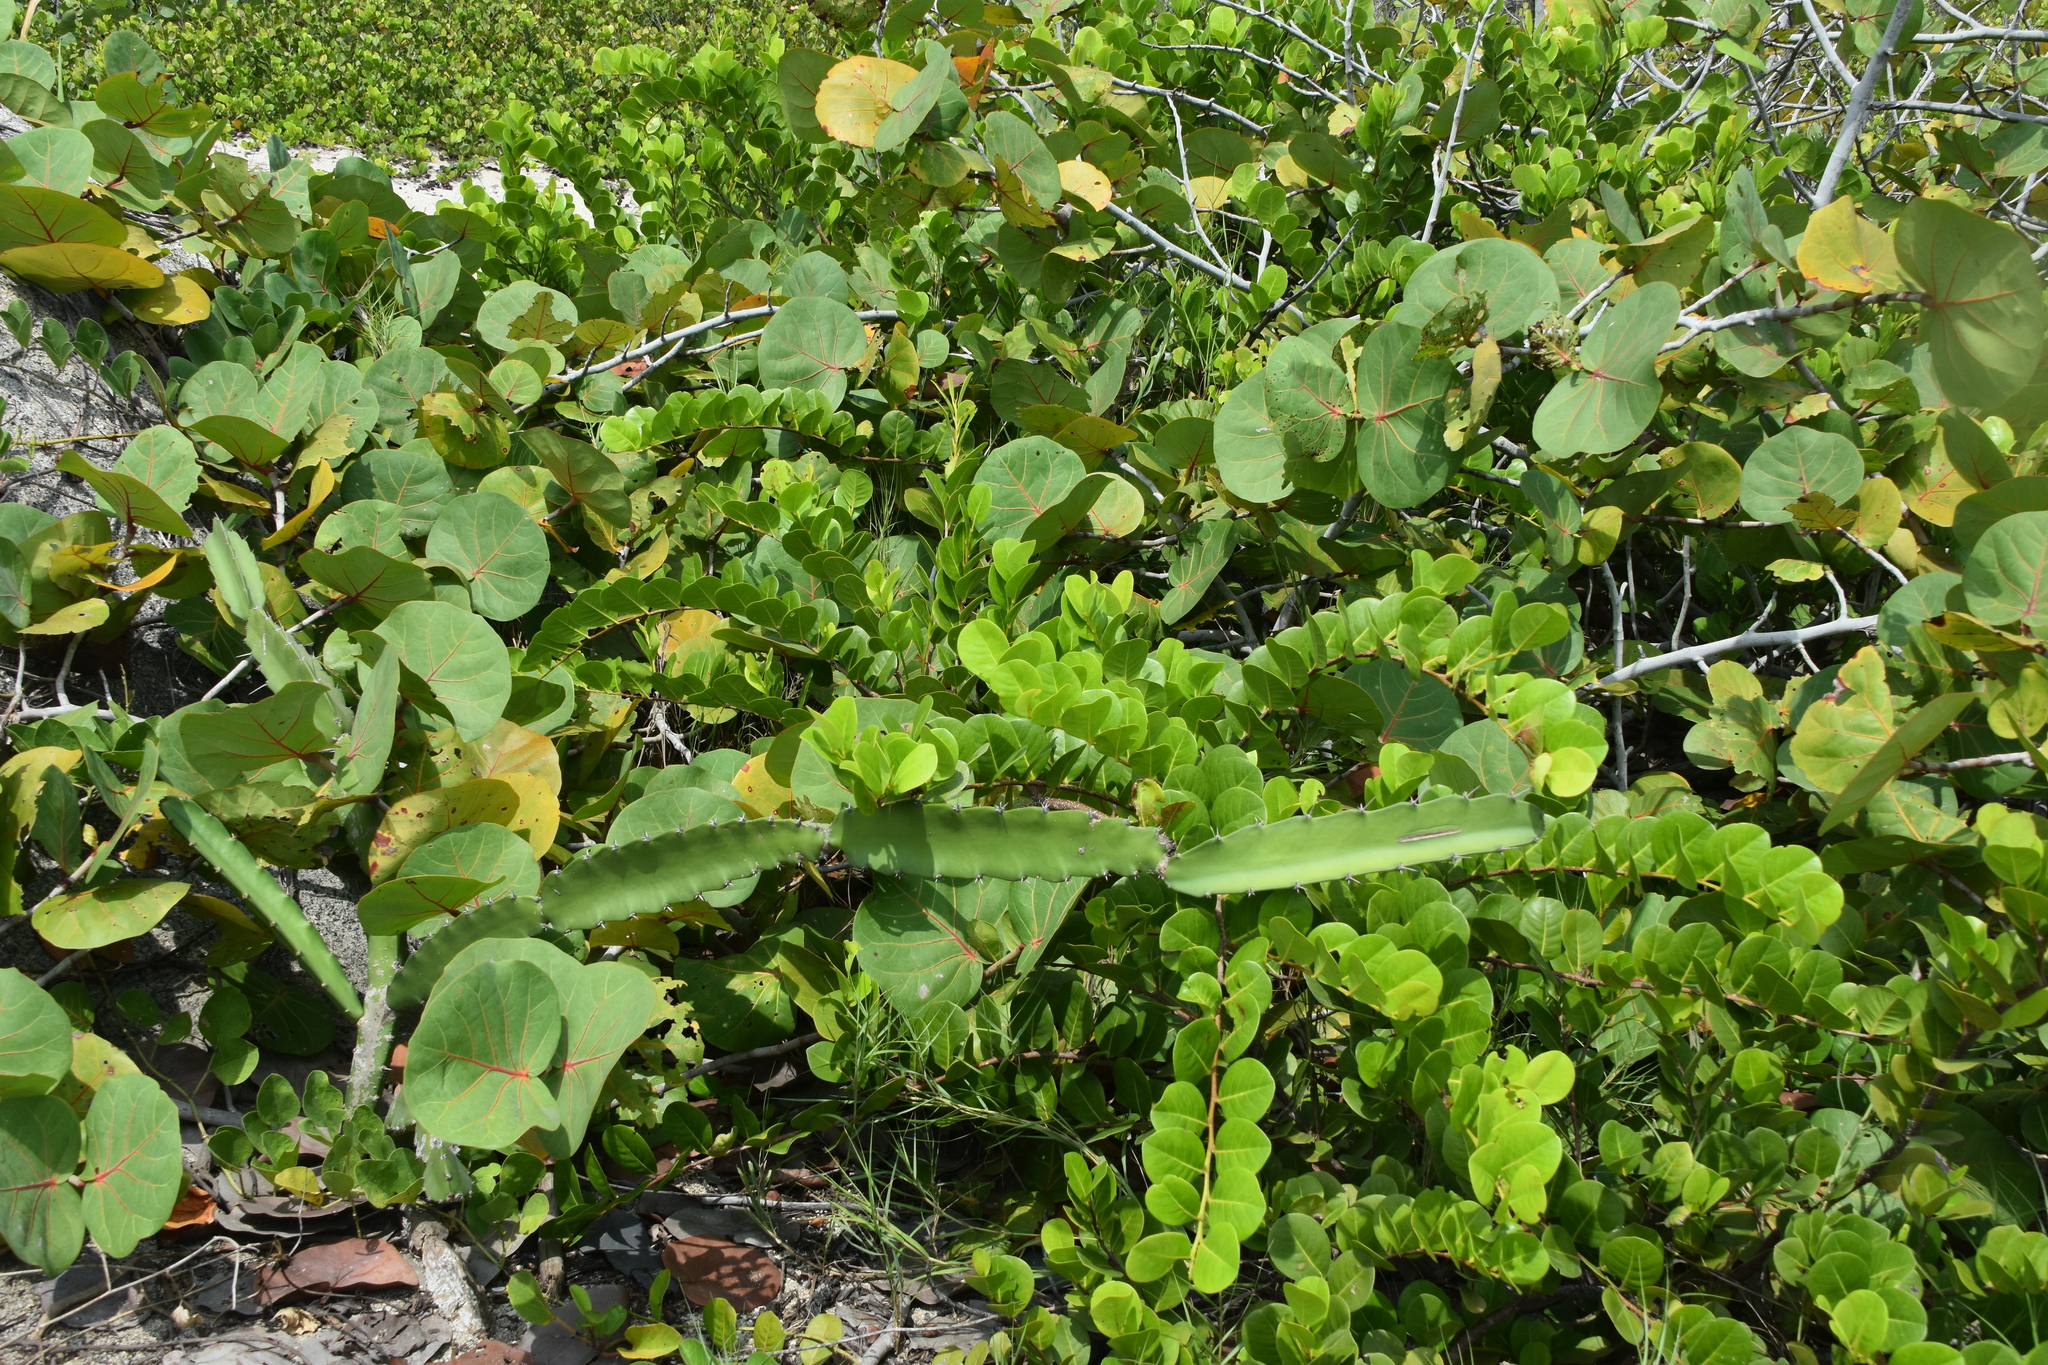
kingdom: Plantae
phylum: Tracheophyta
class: Magnoliopsida
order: Caryophyllales
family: Cactaceae
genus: Acanthocereus
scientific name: Acanthocereus tetragonus
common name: Triangle cactus
